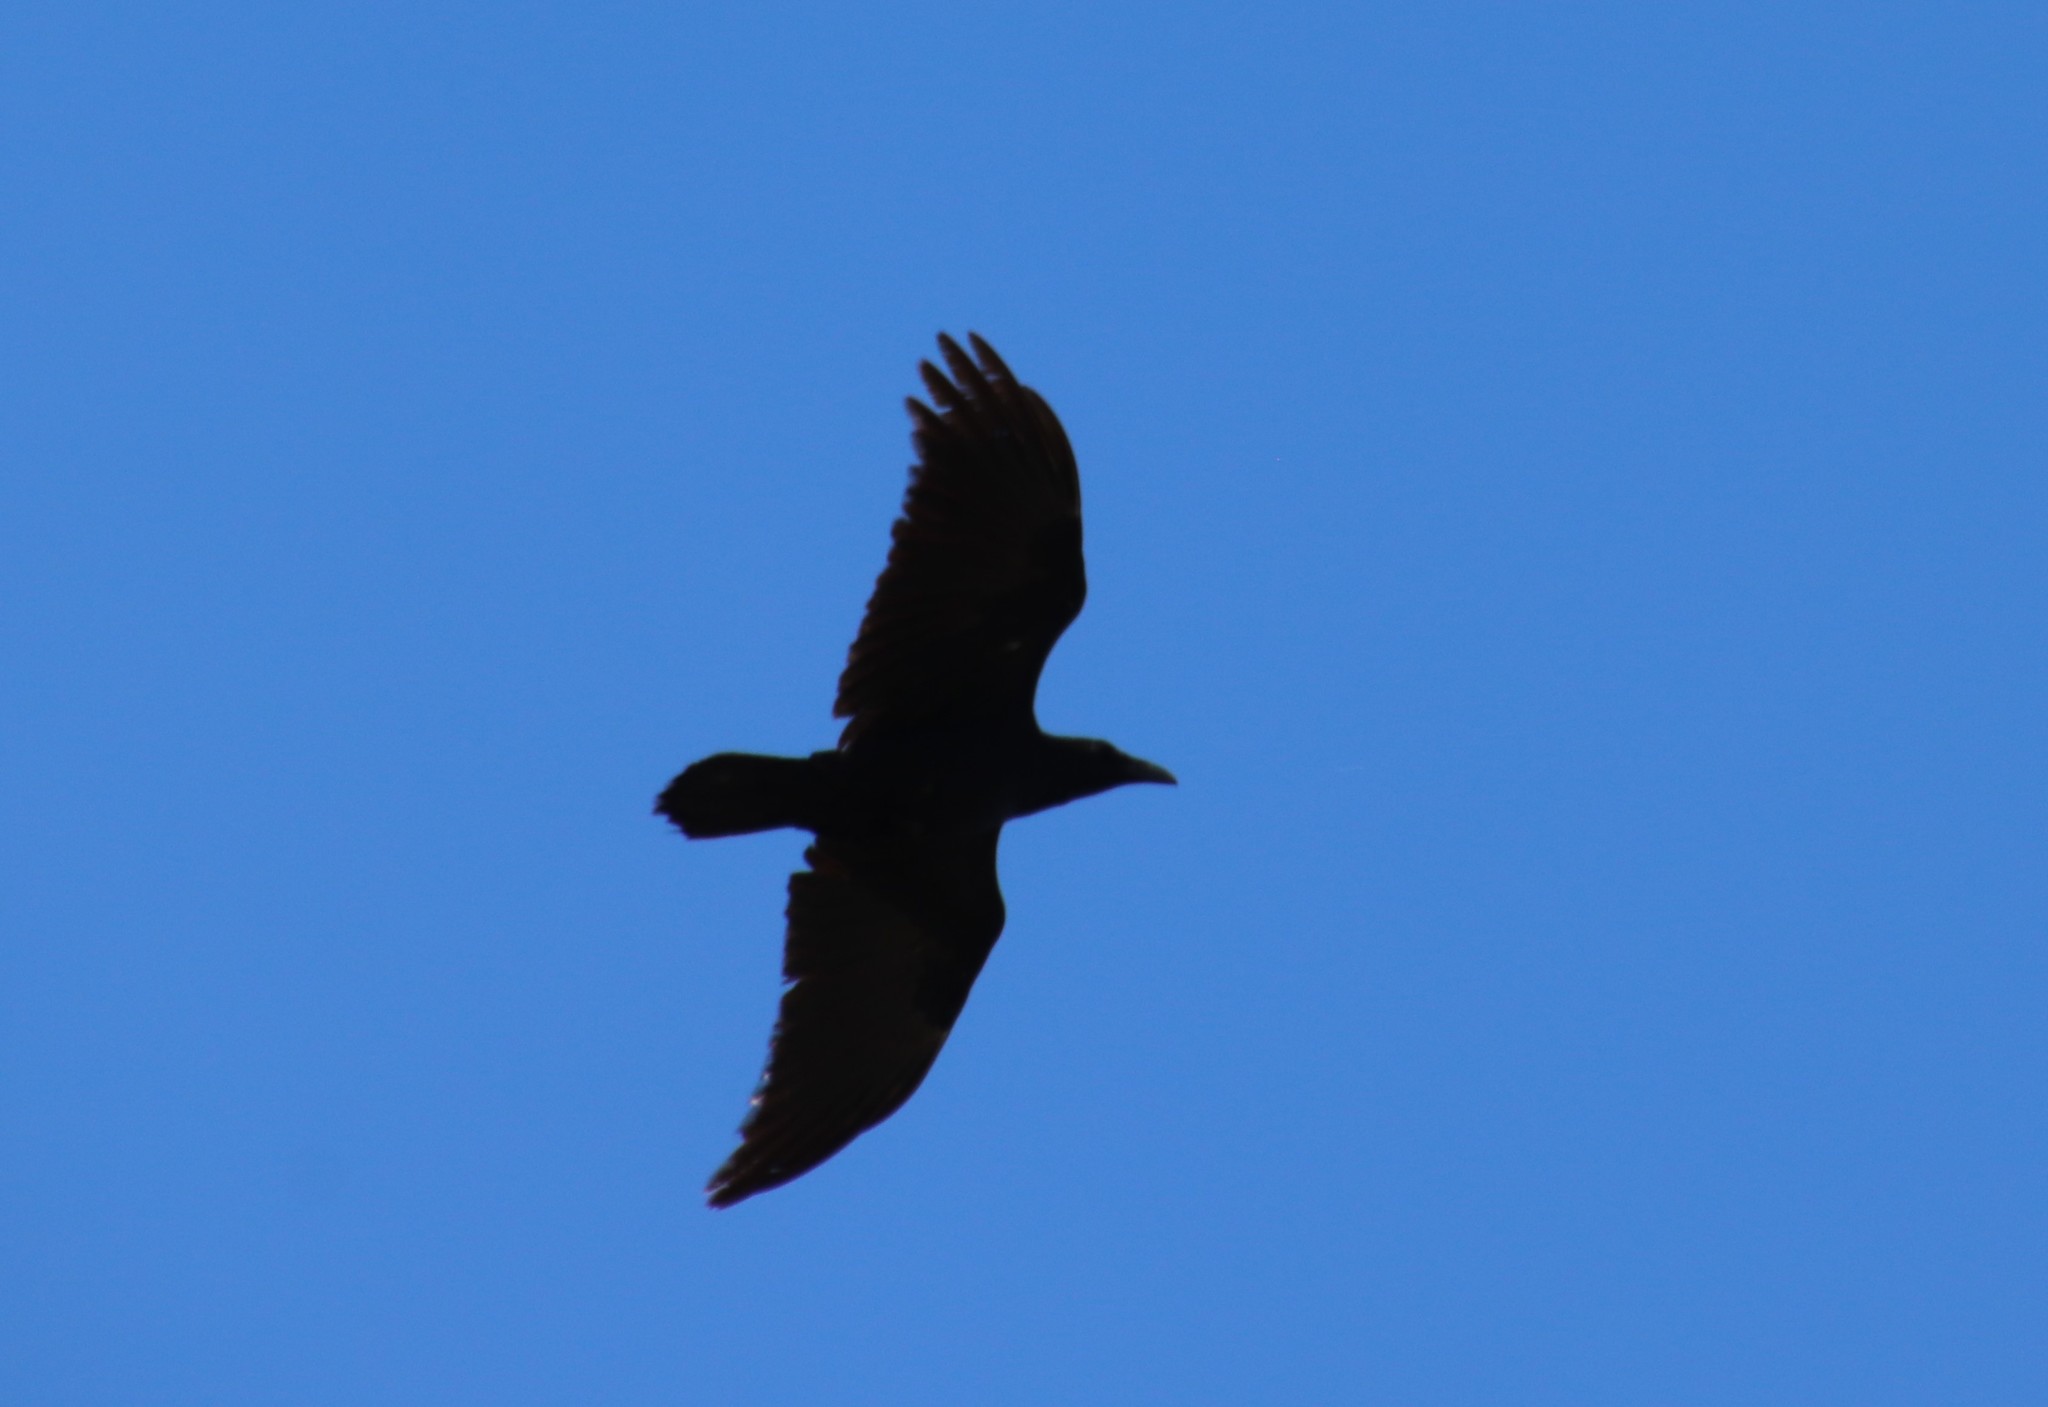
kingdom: Animalia
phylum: Chordata
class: Aves
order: Passeriformes
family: Corvidae
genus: Corvus
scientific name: Corvus corax
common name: Common raven
